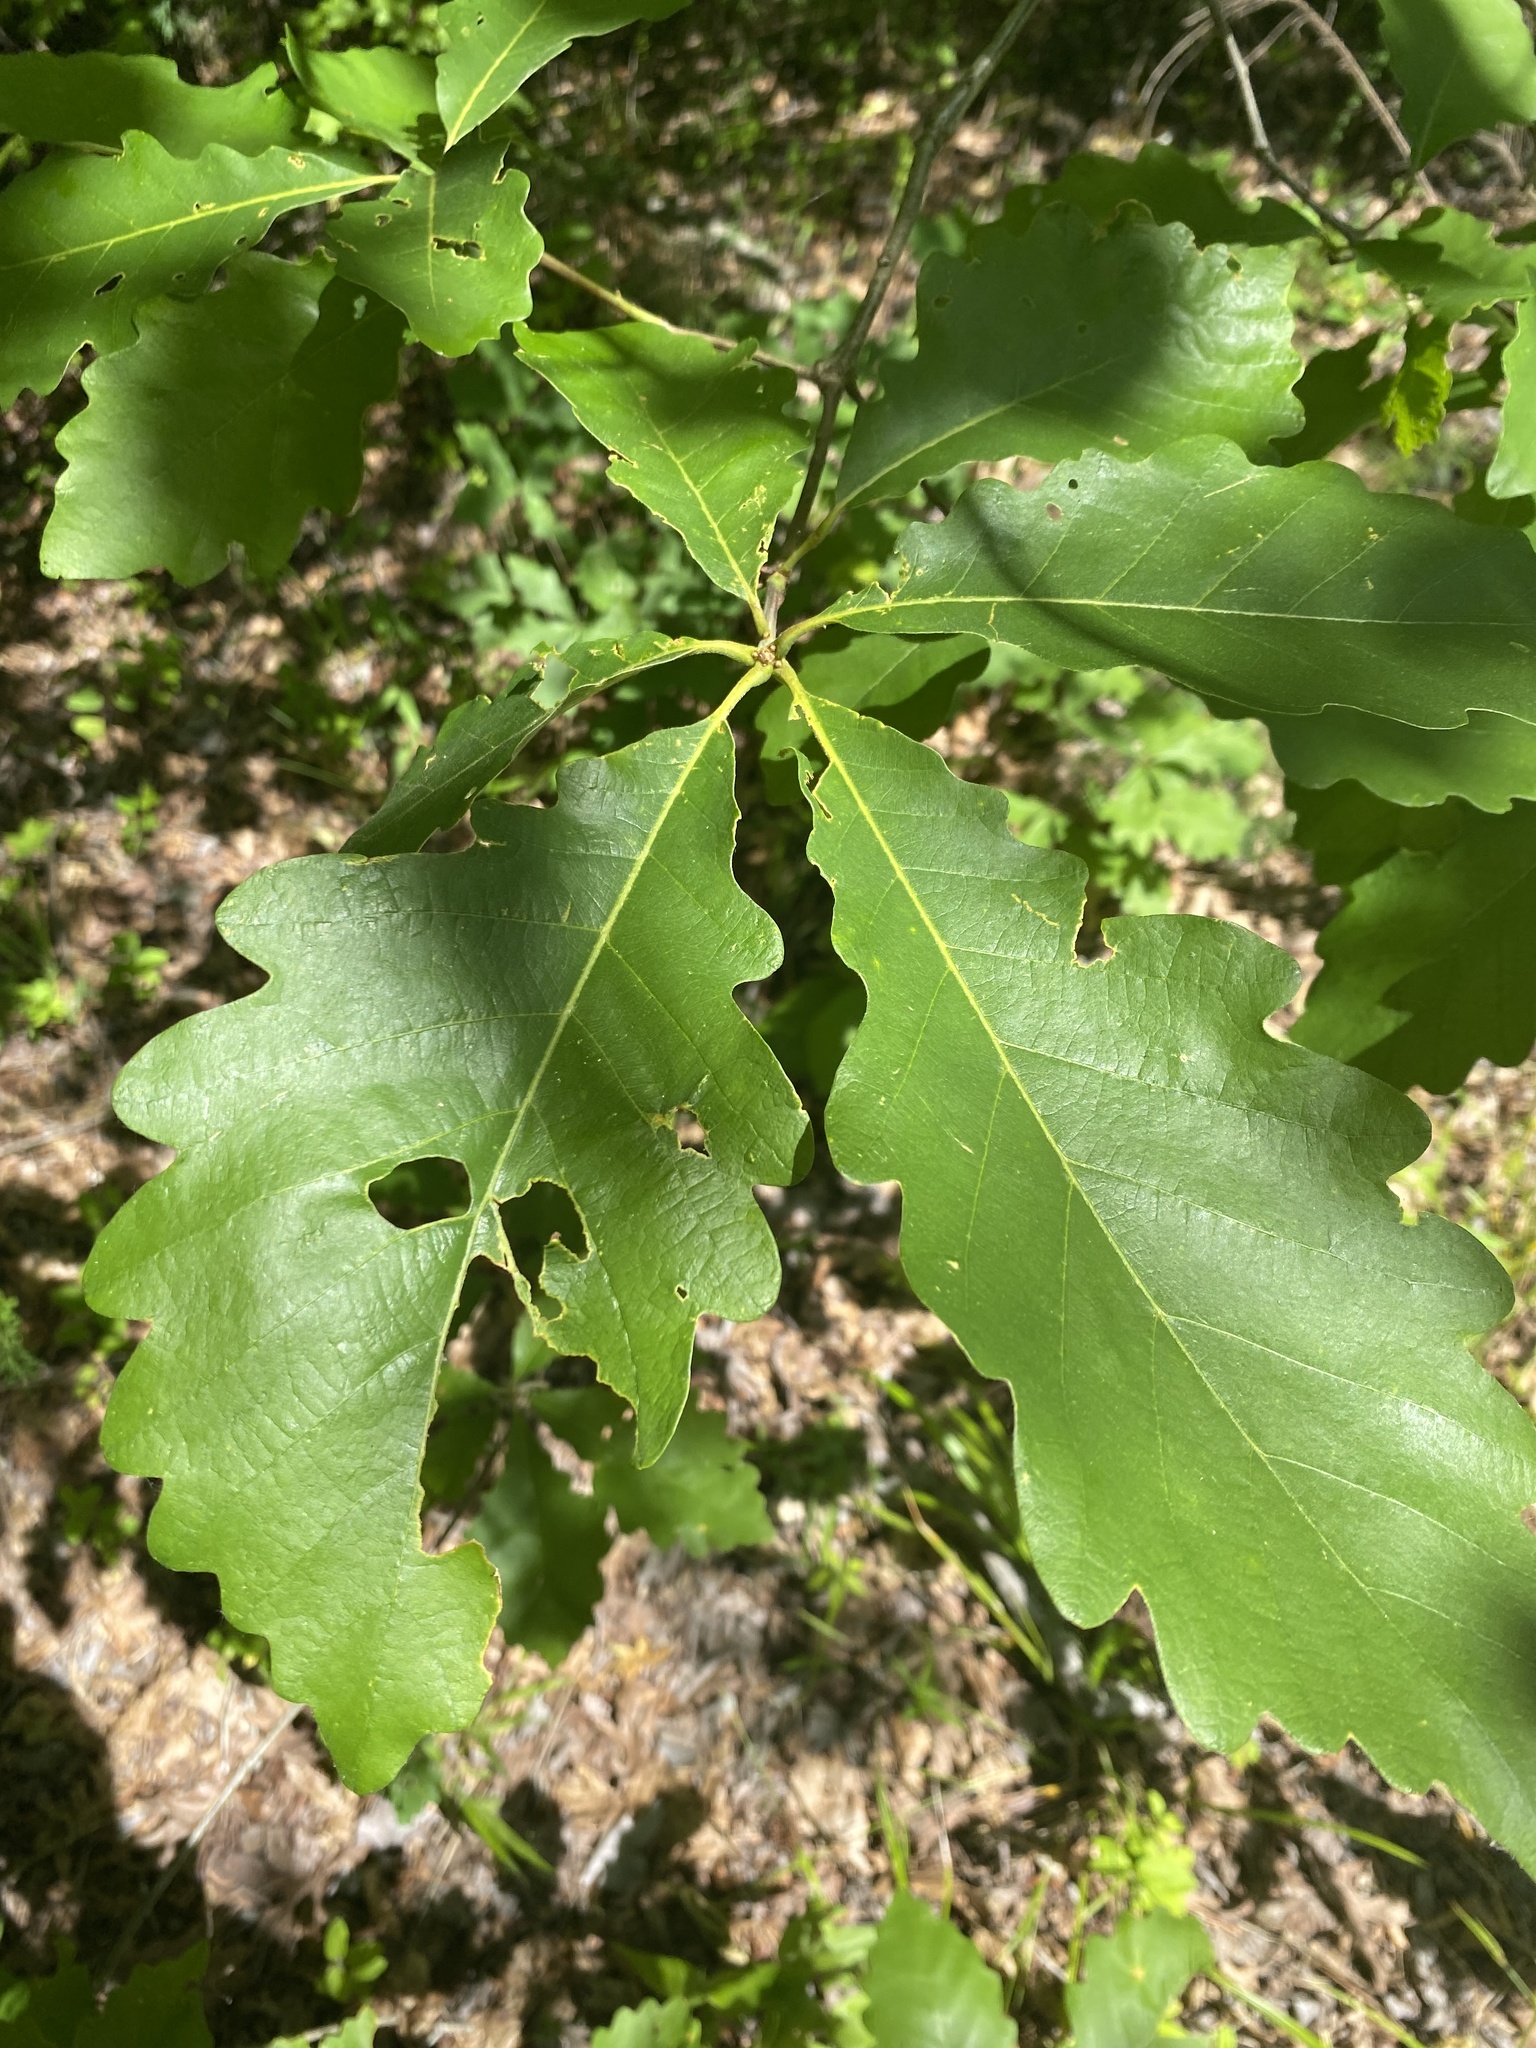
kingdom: Plantae
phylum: Tracheophyta
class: Magnoliopsida
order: Fagales
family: Fagaceae
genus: Quercus
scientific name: Quercus michauxii
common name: Swamp chestnut oak
